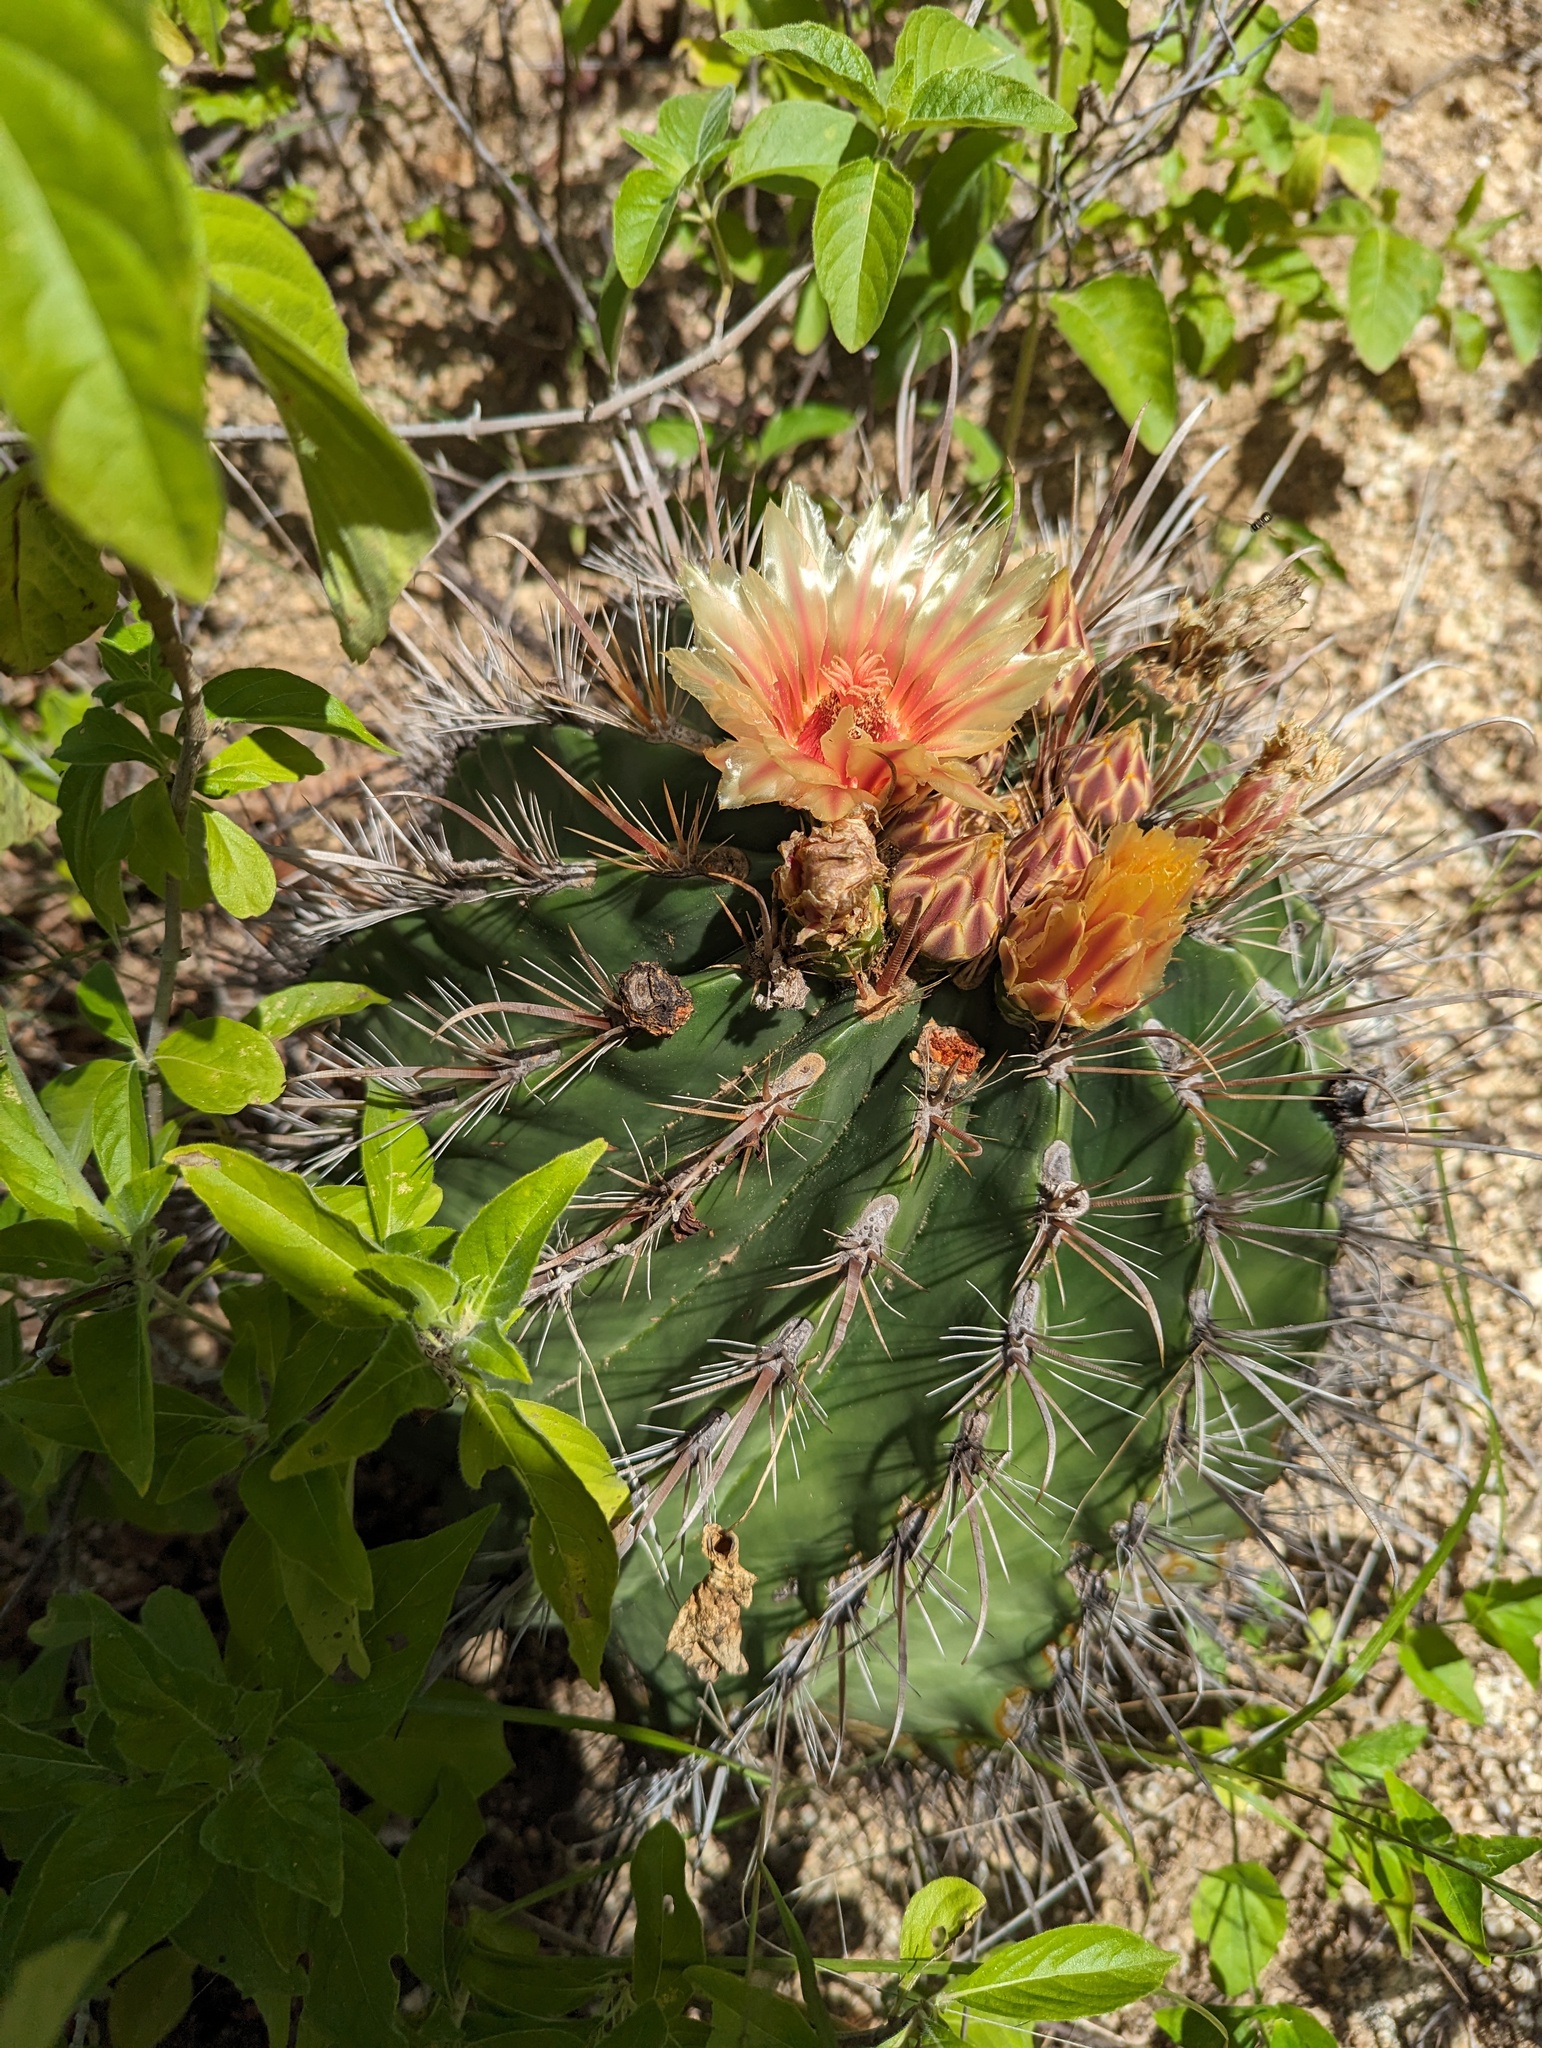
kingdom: Plantae
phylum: Tracheophyta
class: Magnoliopsida
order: Caryophyllales
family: Cactaceae
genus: Ferocactus
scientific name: Ferocactus townsendianus
